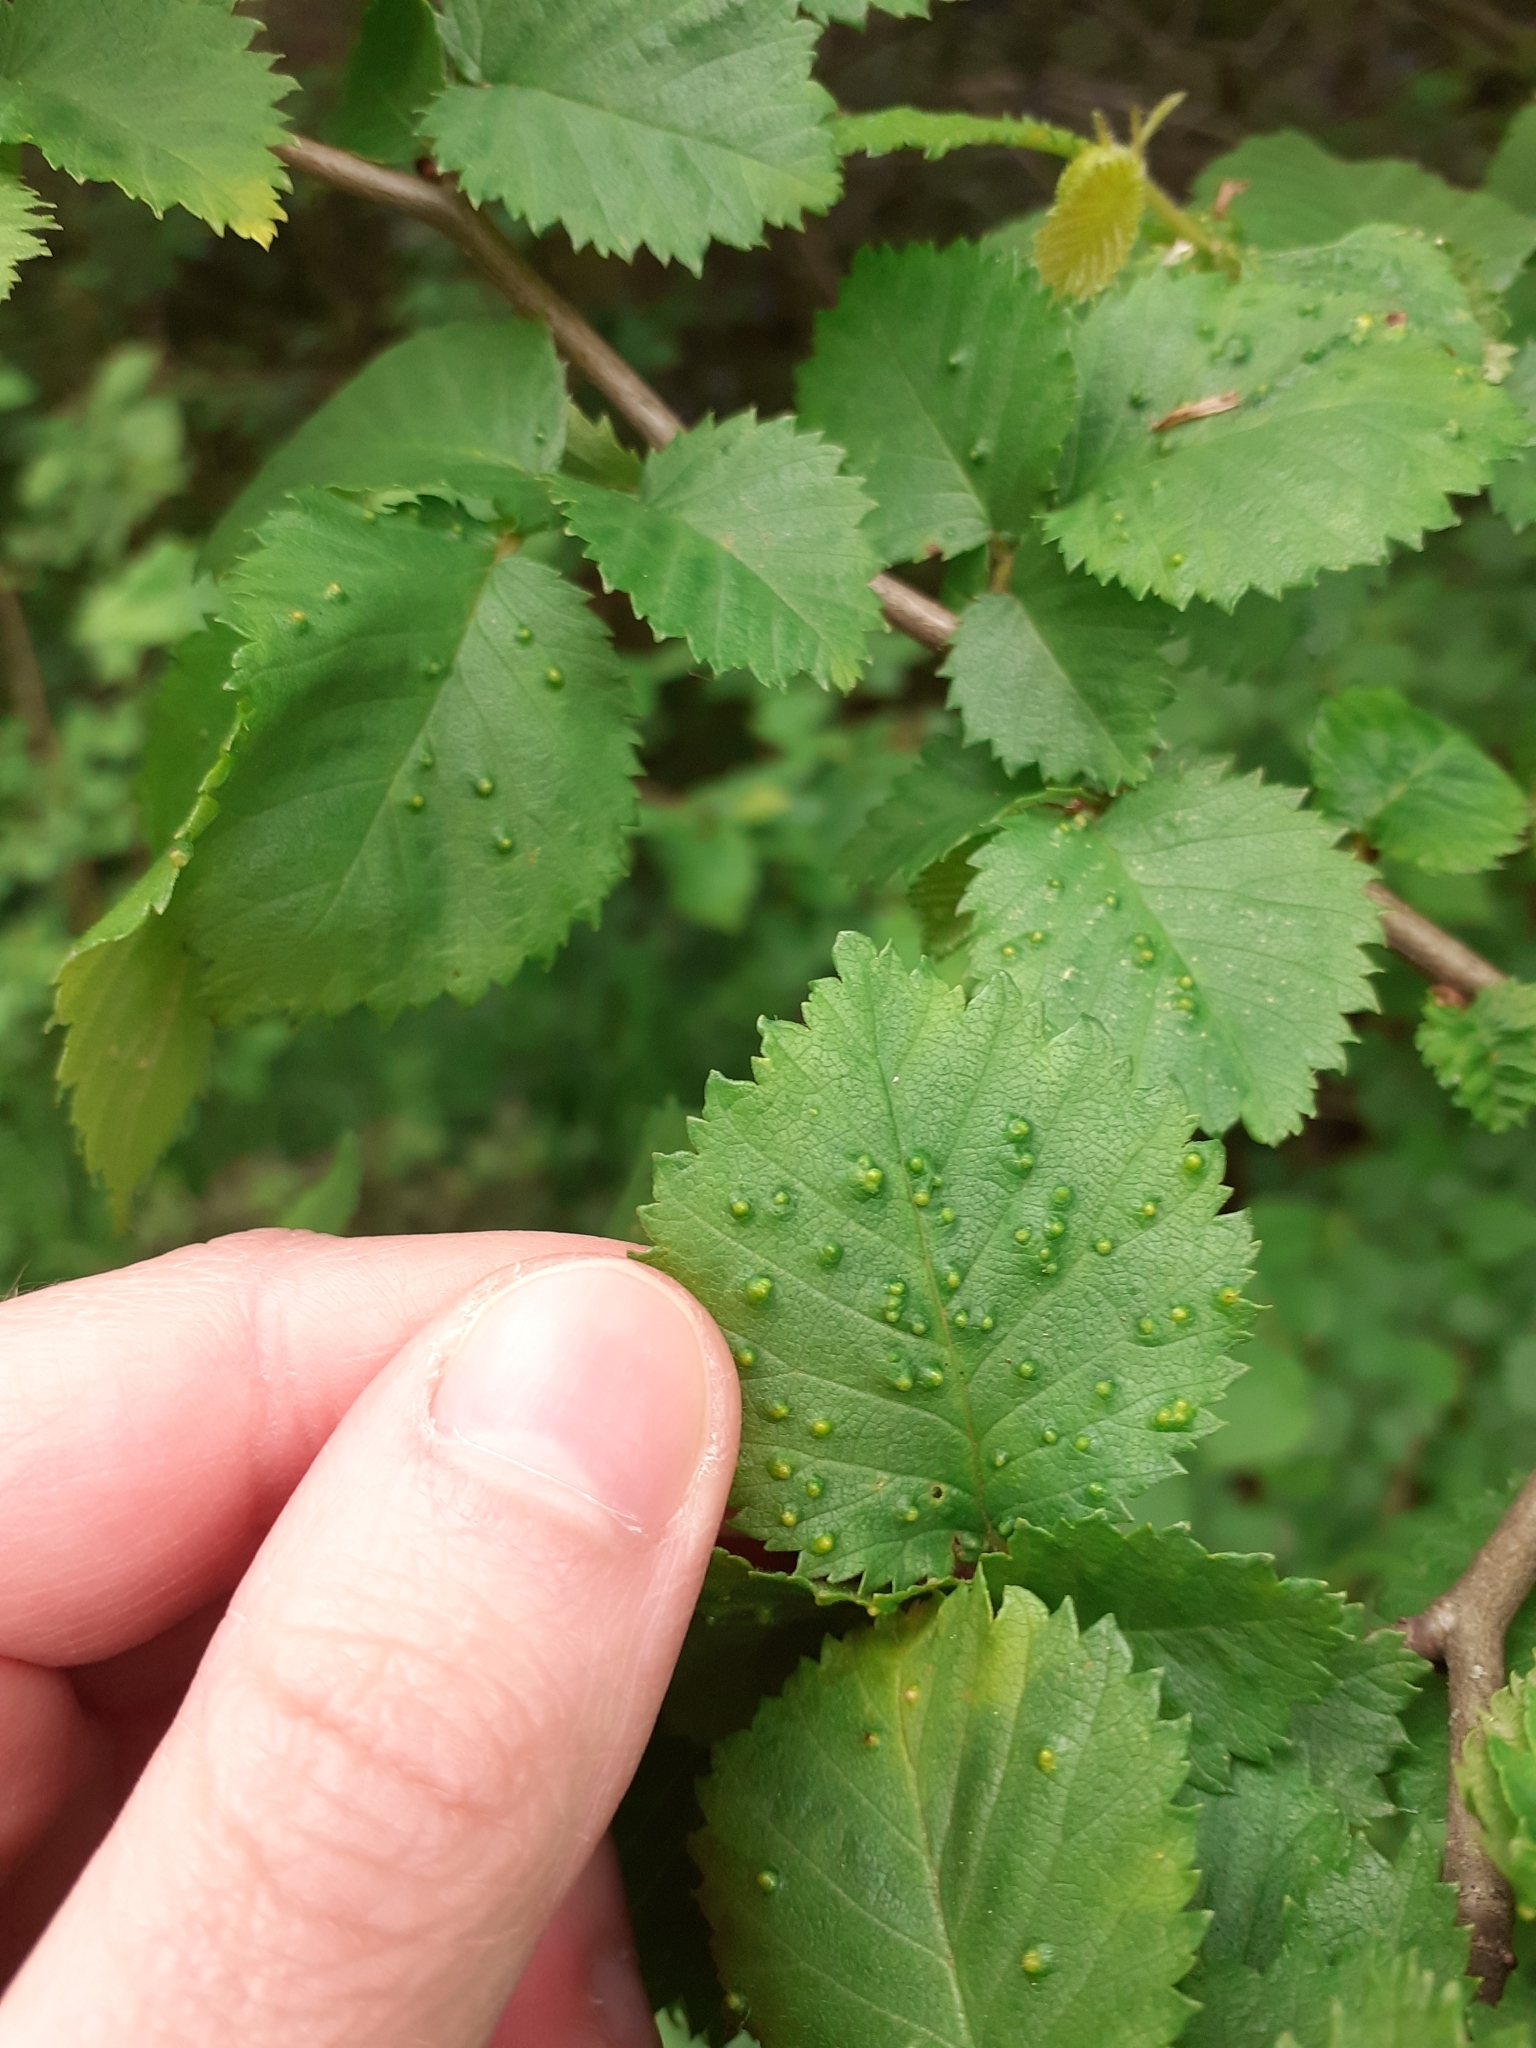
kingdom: Animalia
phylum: Arthropoda
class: Arachnida
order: Trombidiformes
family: Eriophyidae
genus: Aceria
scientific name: Aceria brevipunctata
